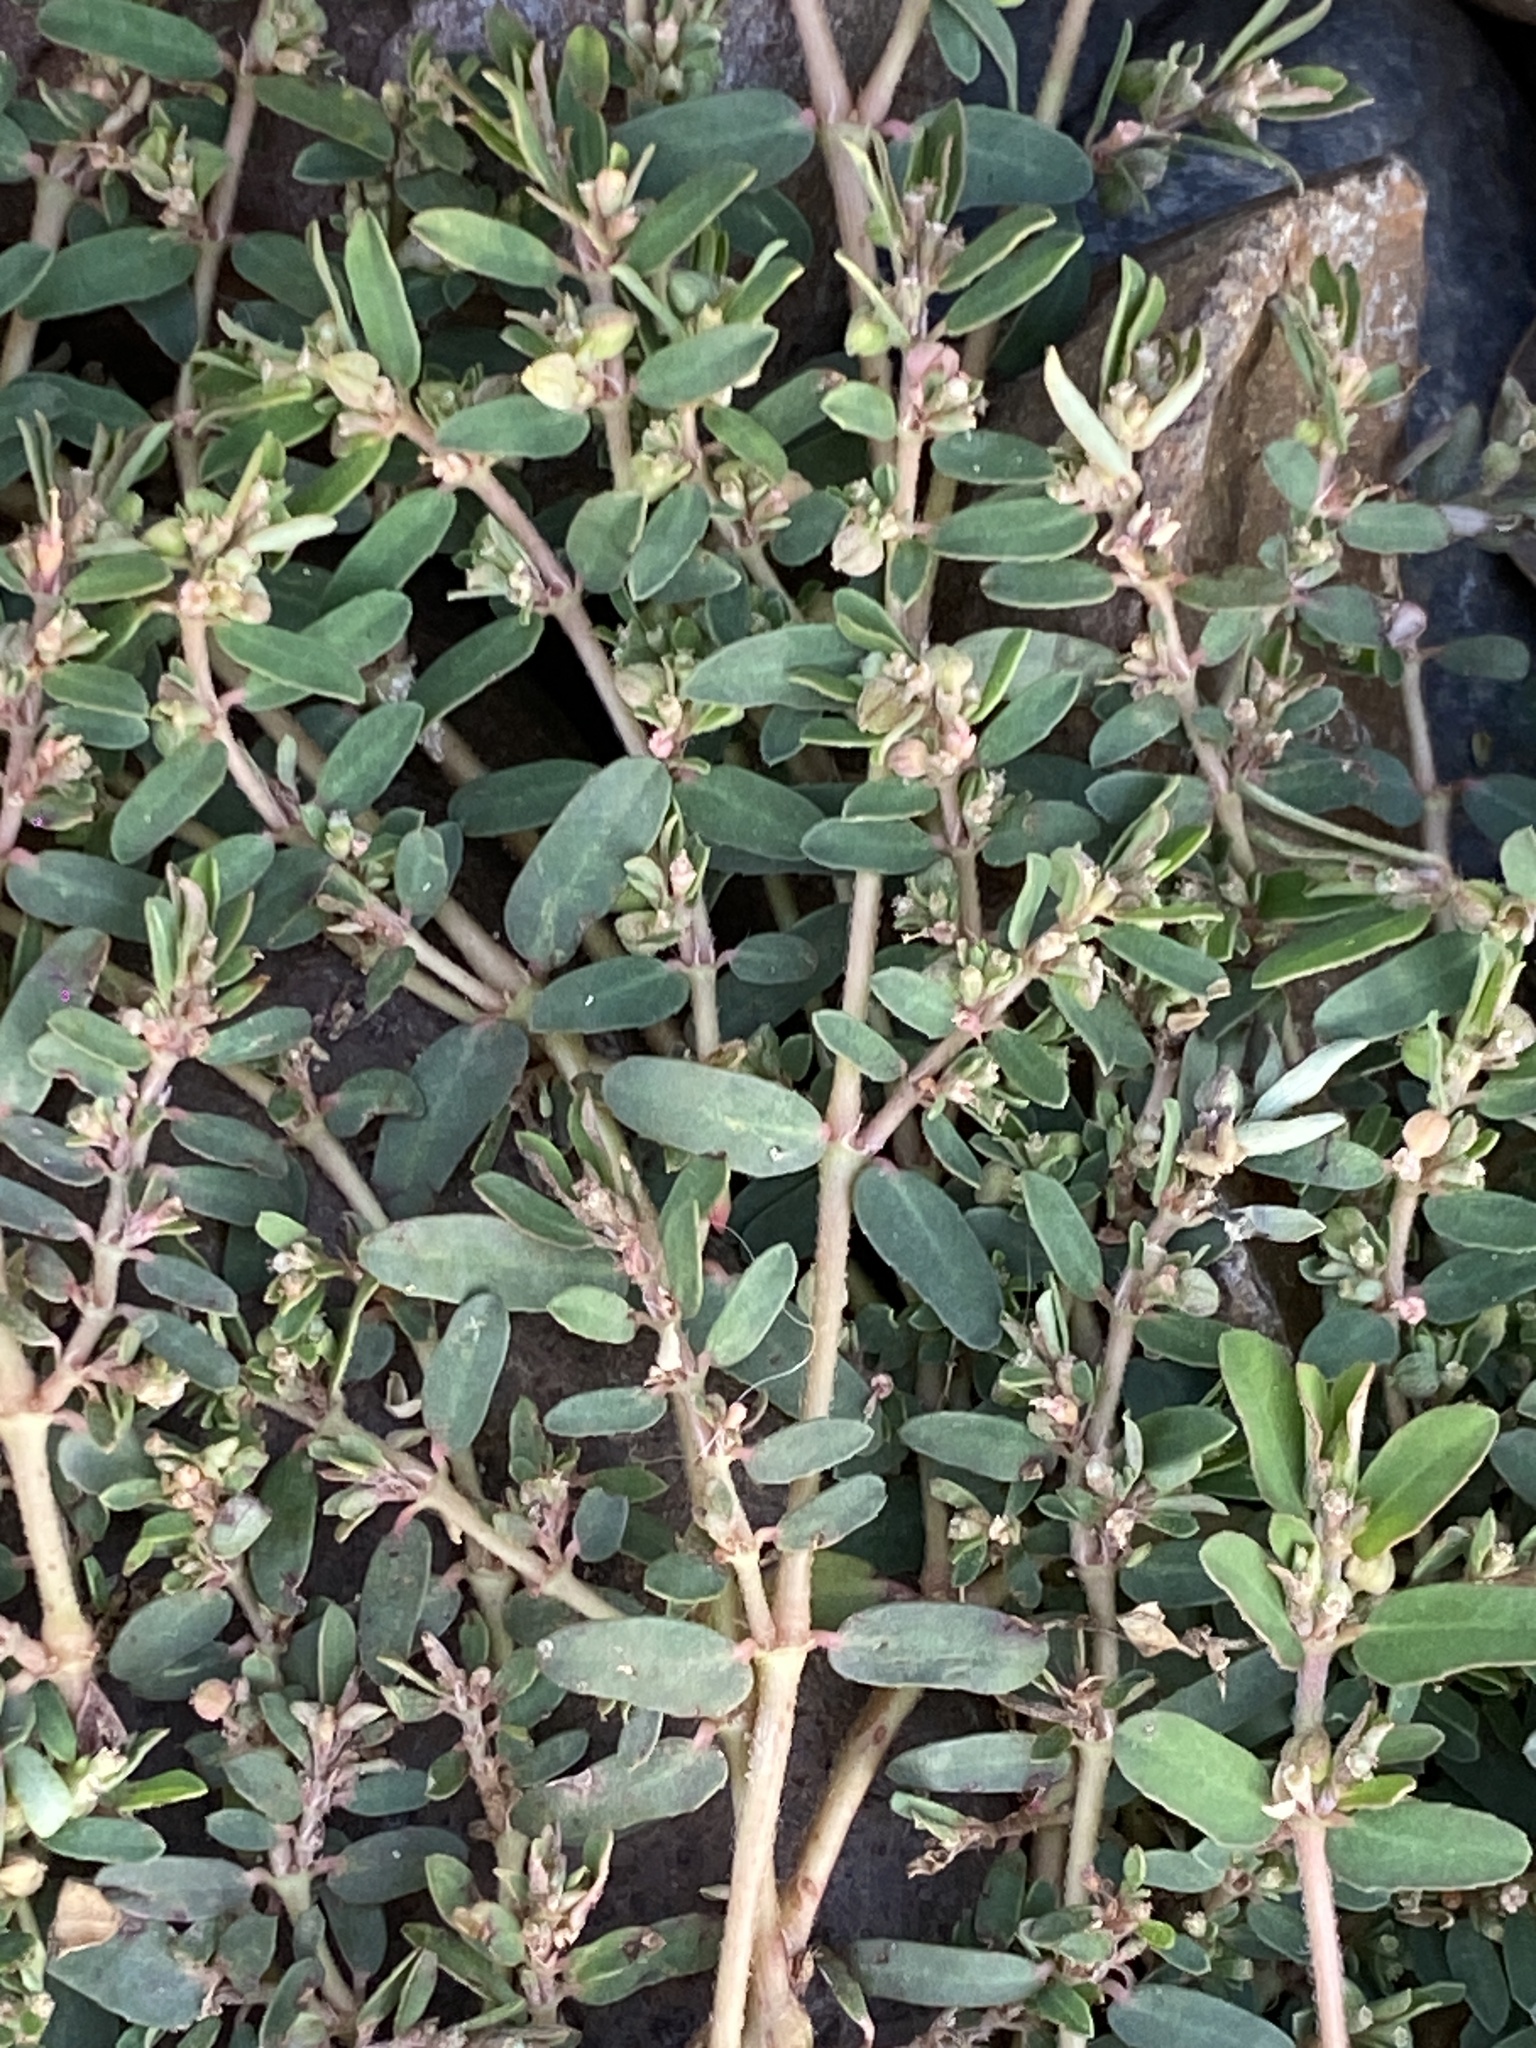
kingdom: Plantae
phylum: Tracheophyta
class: Magnoliopsida
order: Malpighiales
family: Euphorbiaceae
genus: Euphorbia
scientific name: Euphorbia maculata
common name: Spotted spurge
